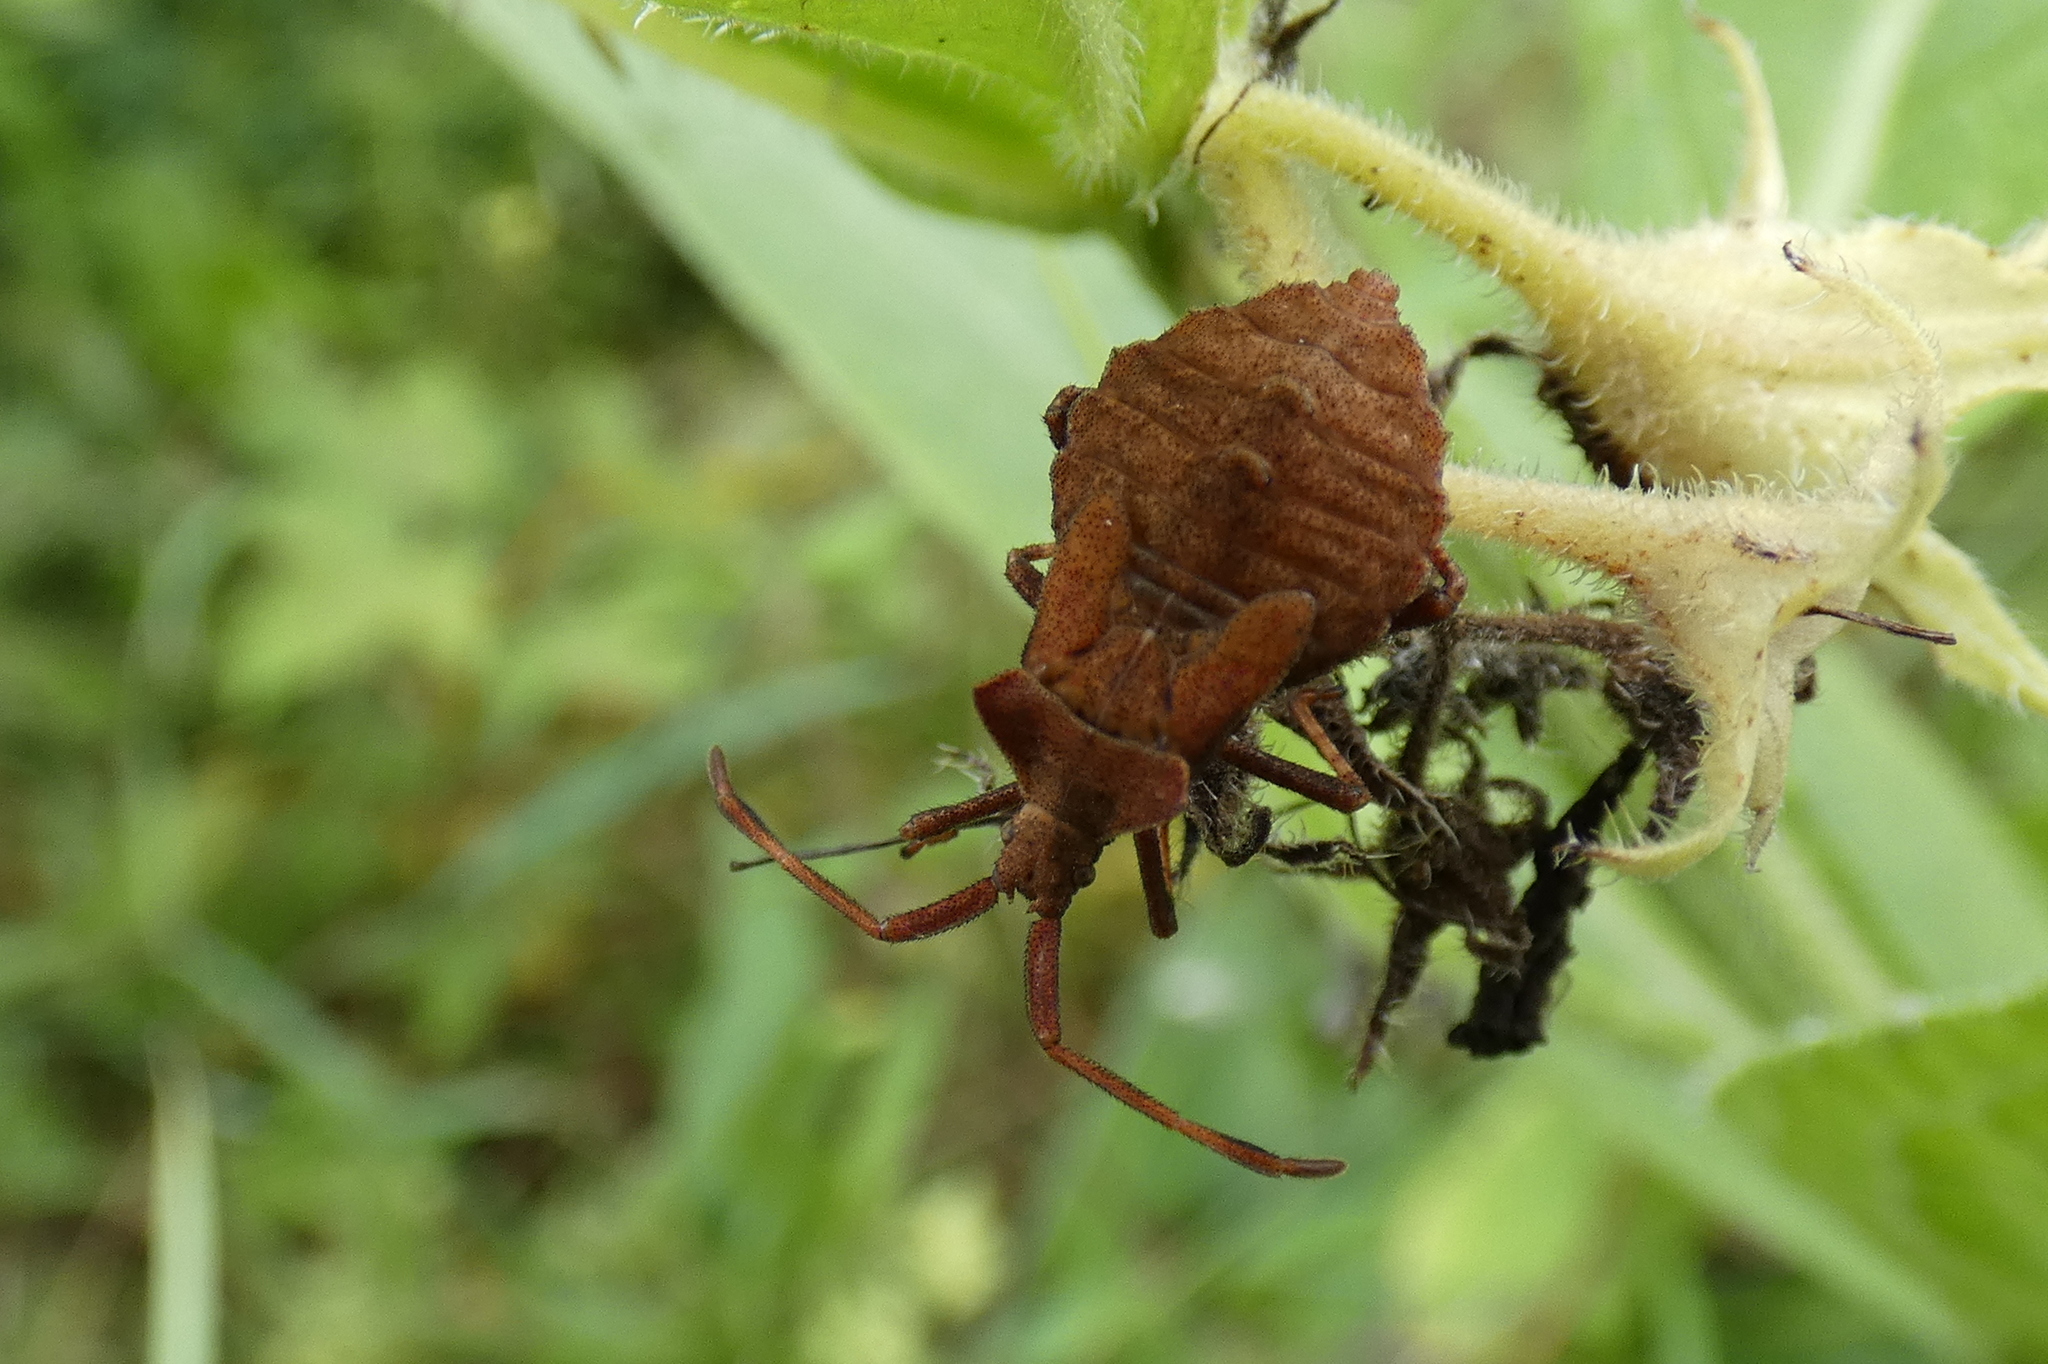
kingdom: Animalia
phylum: Arthropoda
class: Insecta
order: Hemiptera
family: Coreidae
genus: Coreus
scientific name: Coreus marginatus
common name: Dock bug
